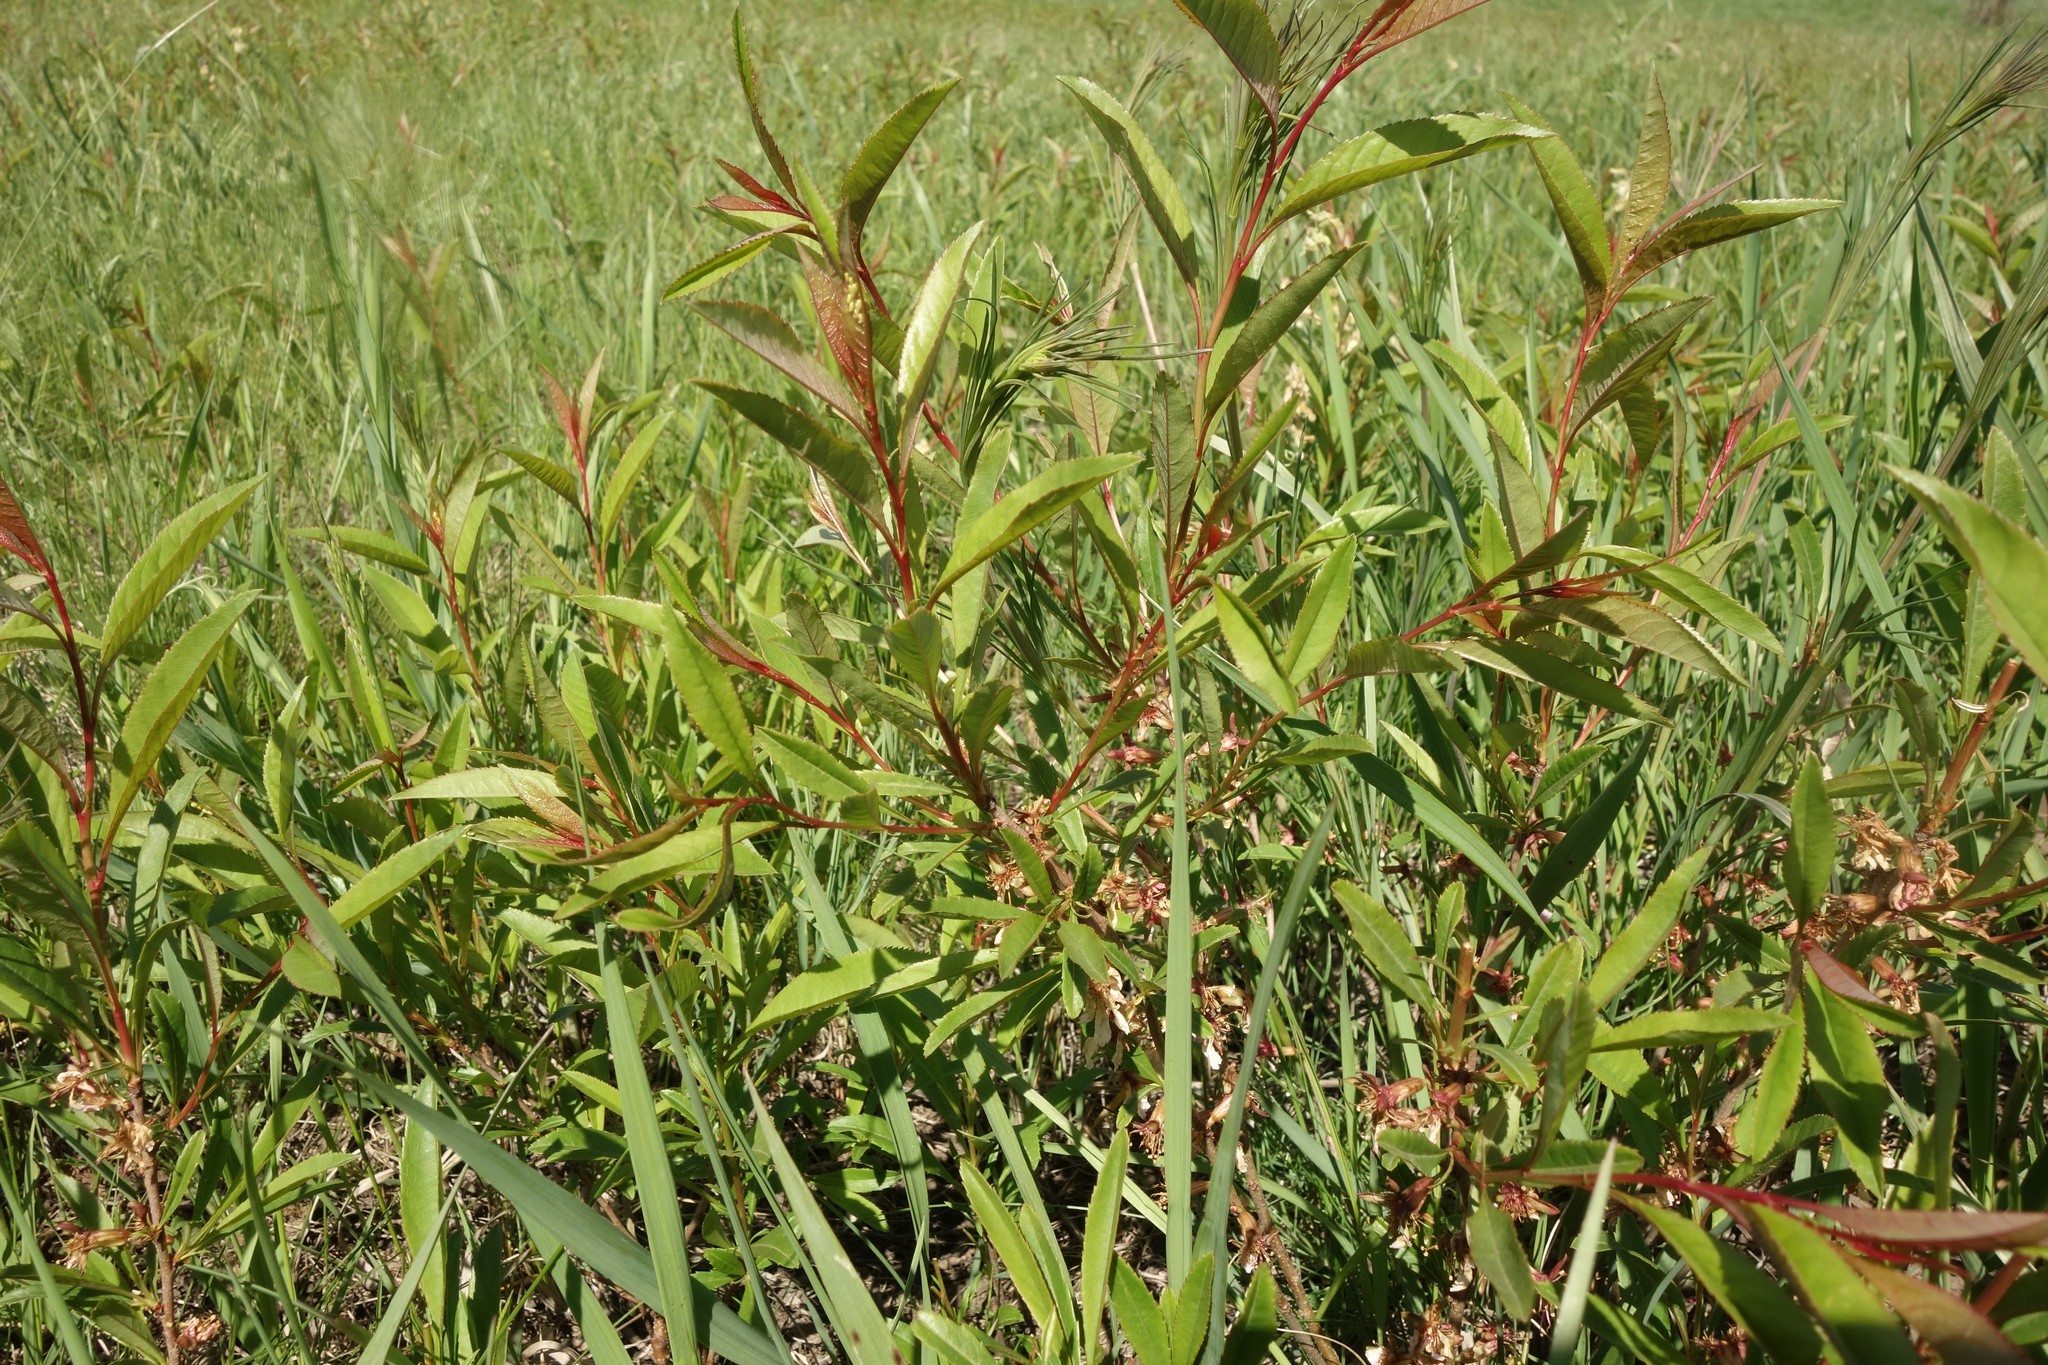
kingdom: Plantae
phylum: Tracheophyta
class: Magnoliopsida
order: Rosales
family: Rosaceae
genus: Prunus
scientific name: Prunus tenella
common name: Dwarf russian almond
